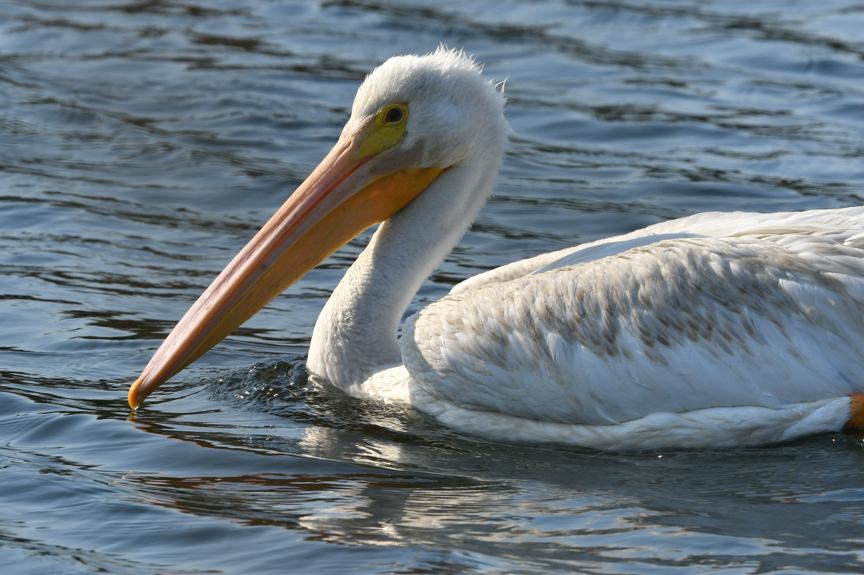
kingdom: Animalia
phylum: Chordata
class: Aves
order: Pelecaniformes
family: Pelecanidae
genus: Pelecanus
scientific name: Pelecanus erythrorhynchos
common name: American white pelican
